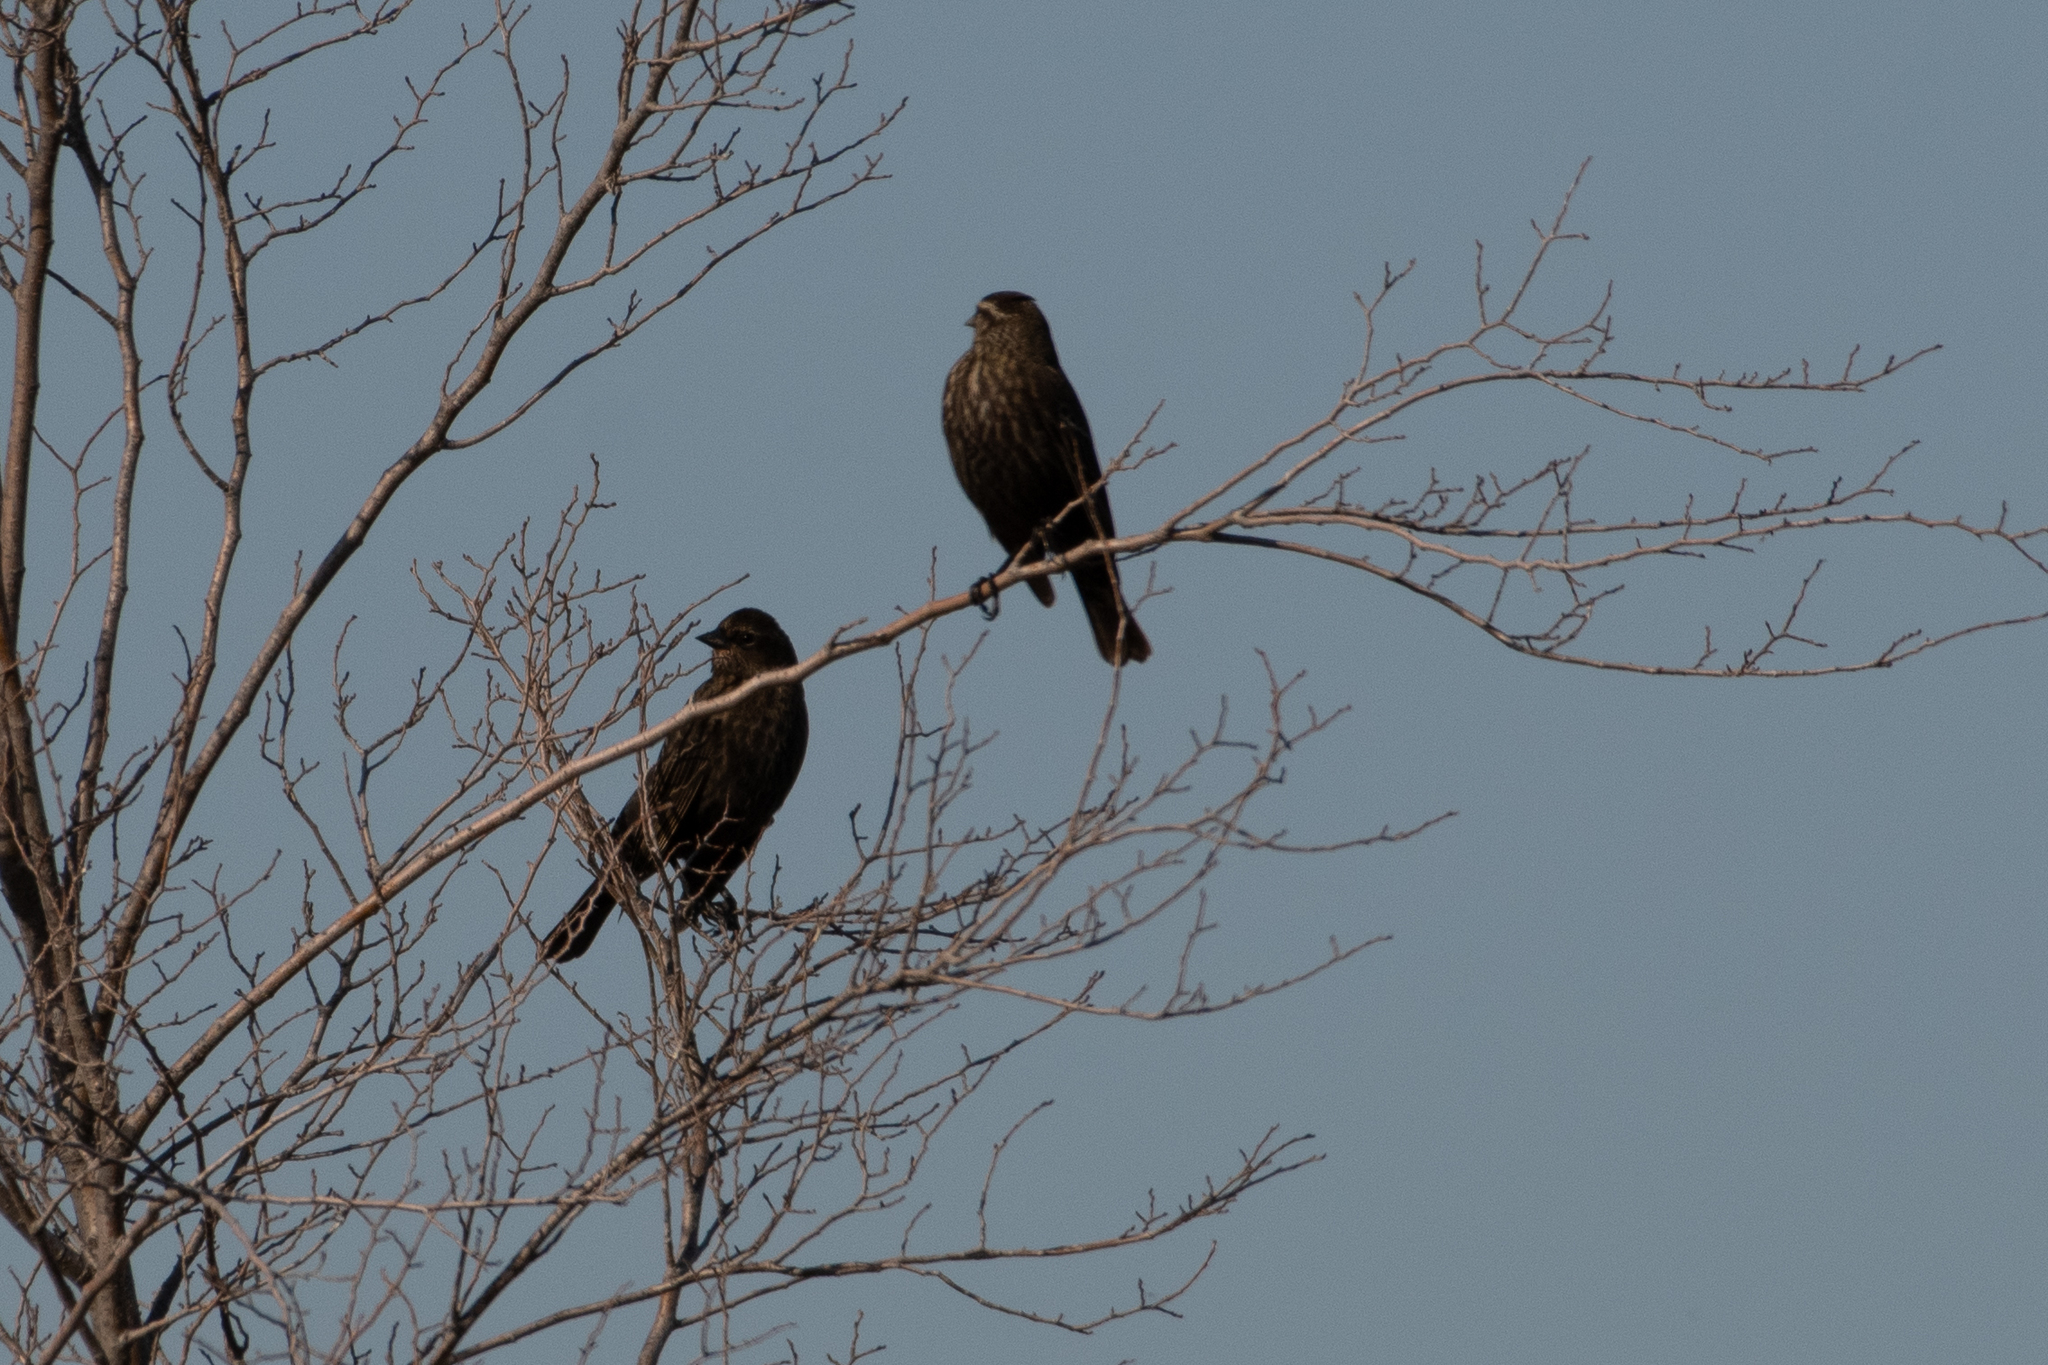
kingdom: Animalia
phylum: Chordata
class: Aves
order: Passeriformes
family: Icteridae
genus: Agelaius
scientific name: Agelaius phoeniceus
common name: Red-winged blackbird
